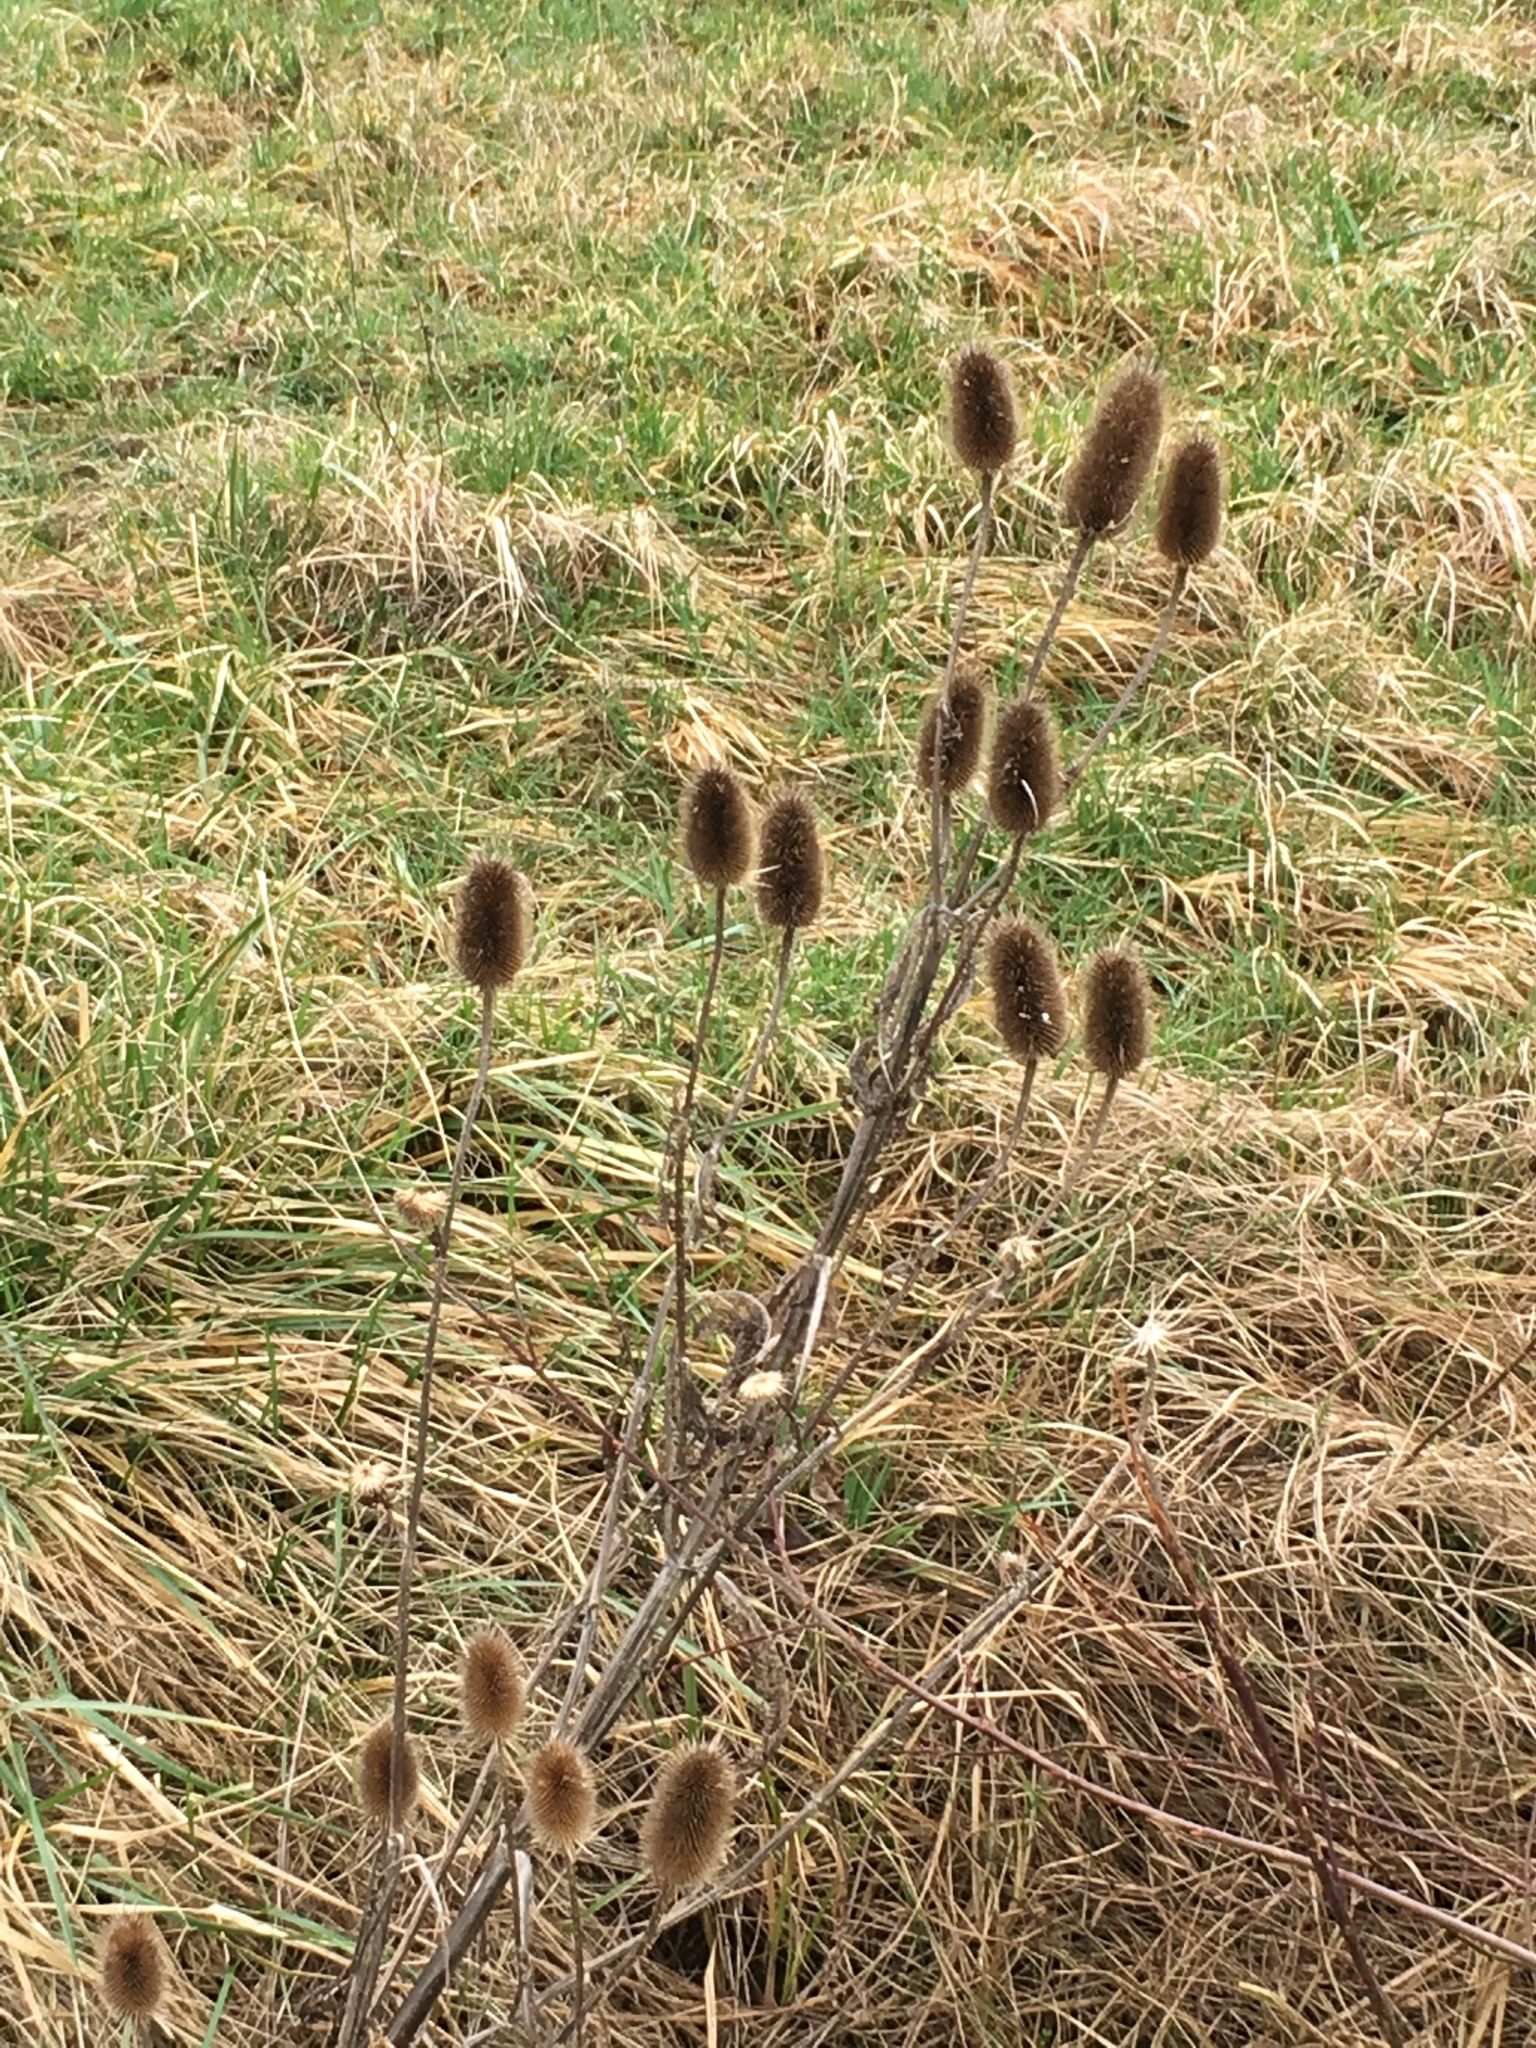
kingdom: Plantae
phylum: Tracheophyta
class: Magnoliopsida
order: Dipsacales
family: Caprifoliaceae
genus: Dipsacus
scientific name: Dipsacus fullonum
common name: Teasel
